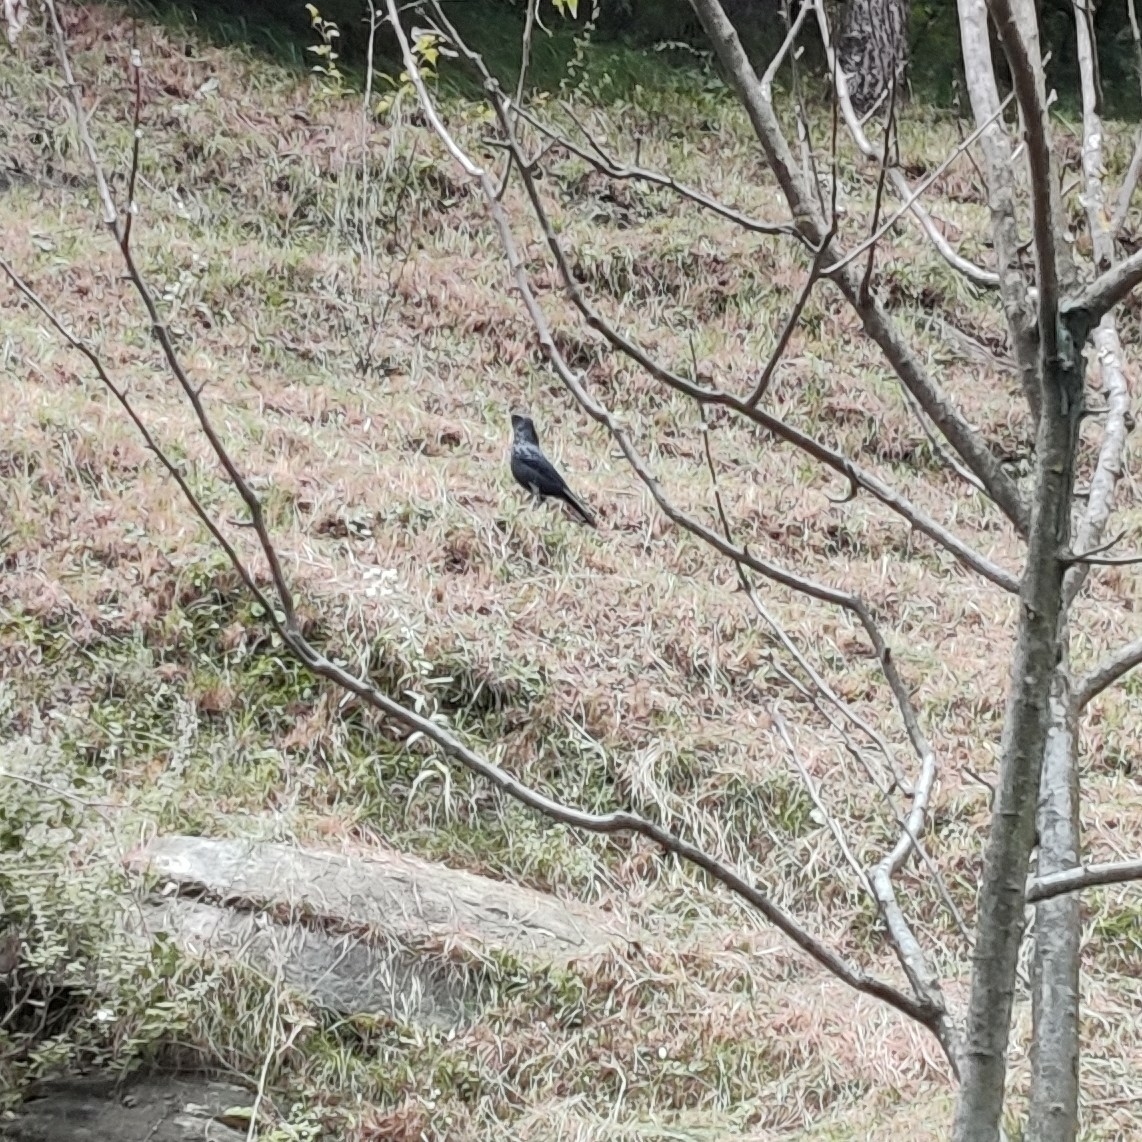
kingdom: Animalia
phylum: Chordata
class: Aves
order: Passeriformes
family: Muscicapidae
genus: Myophonus
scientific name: Myophonus caeruleus
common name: Blue whistling-thrush
